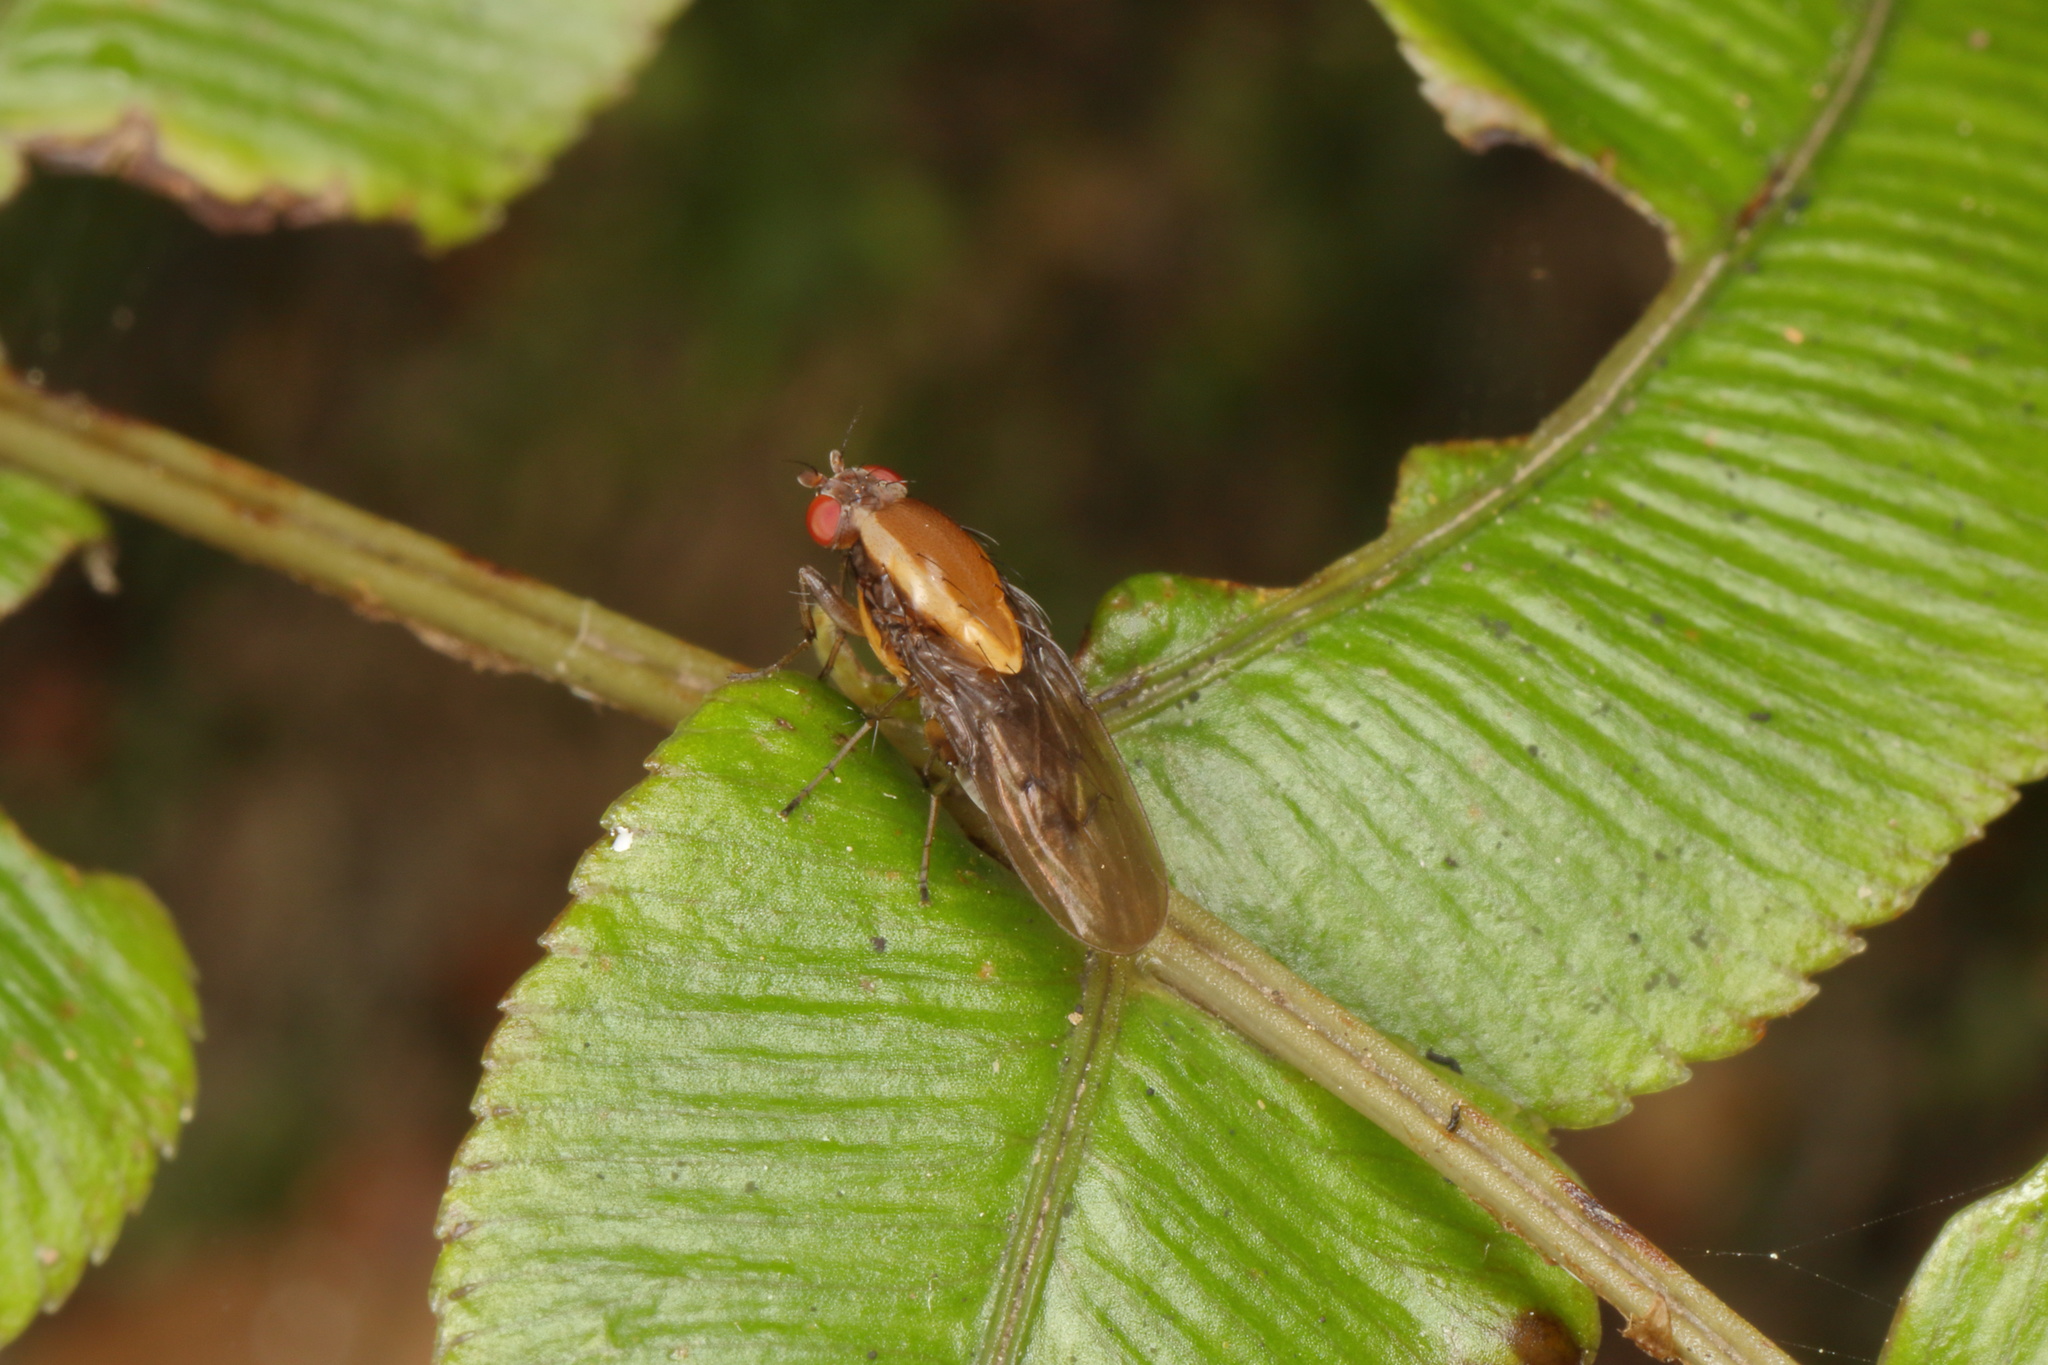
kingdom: Animalia
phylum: Arthropoda
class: Insecta
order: Diptera
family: Heleomyzidae
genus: Allophylopsis
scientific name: Allophylopsis scutellata
